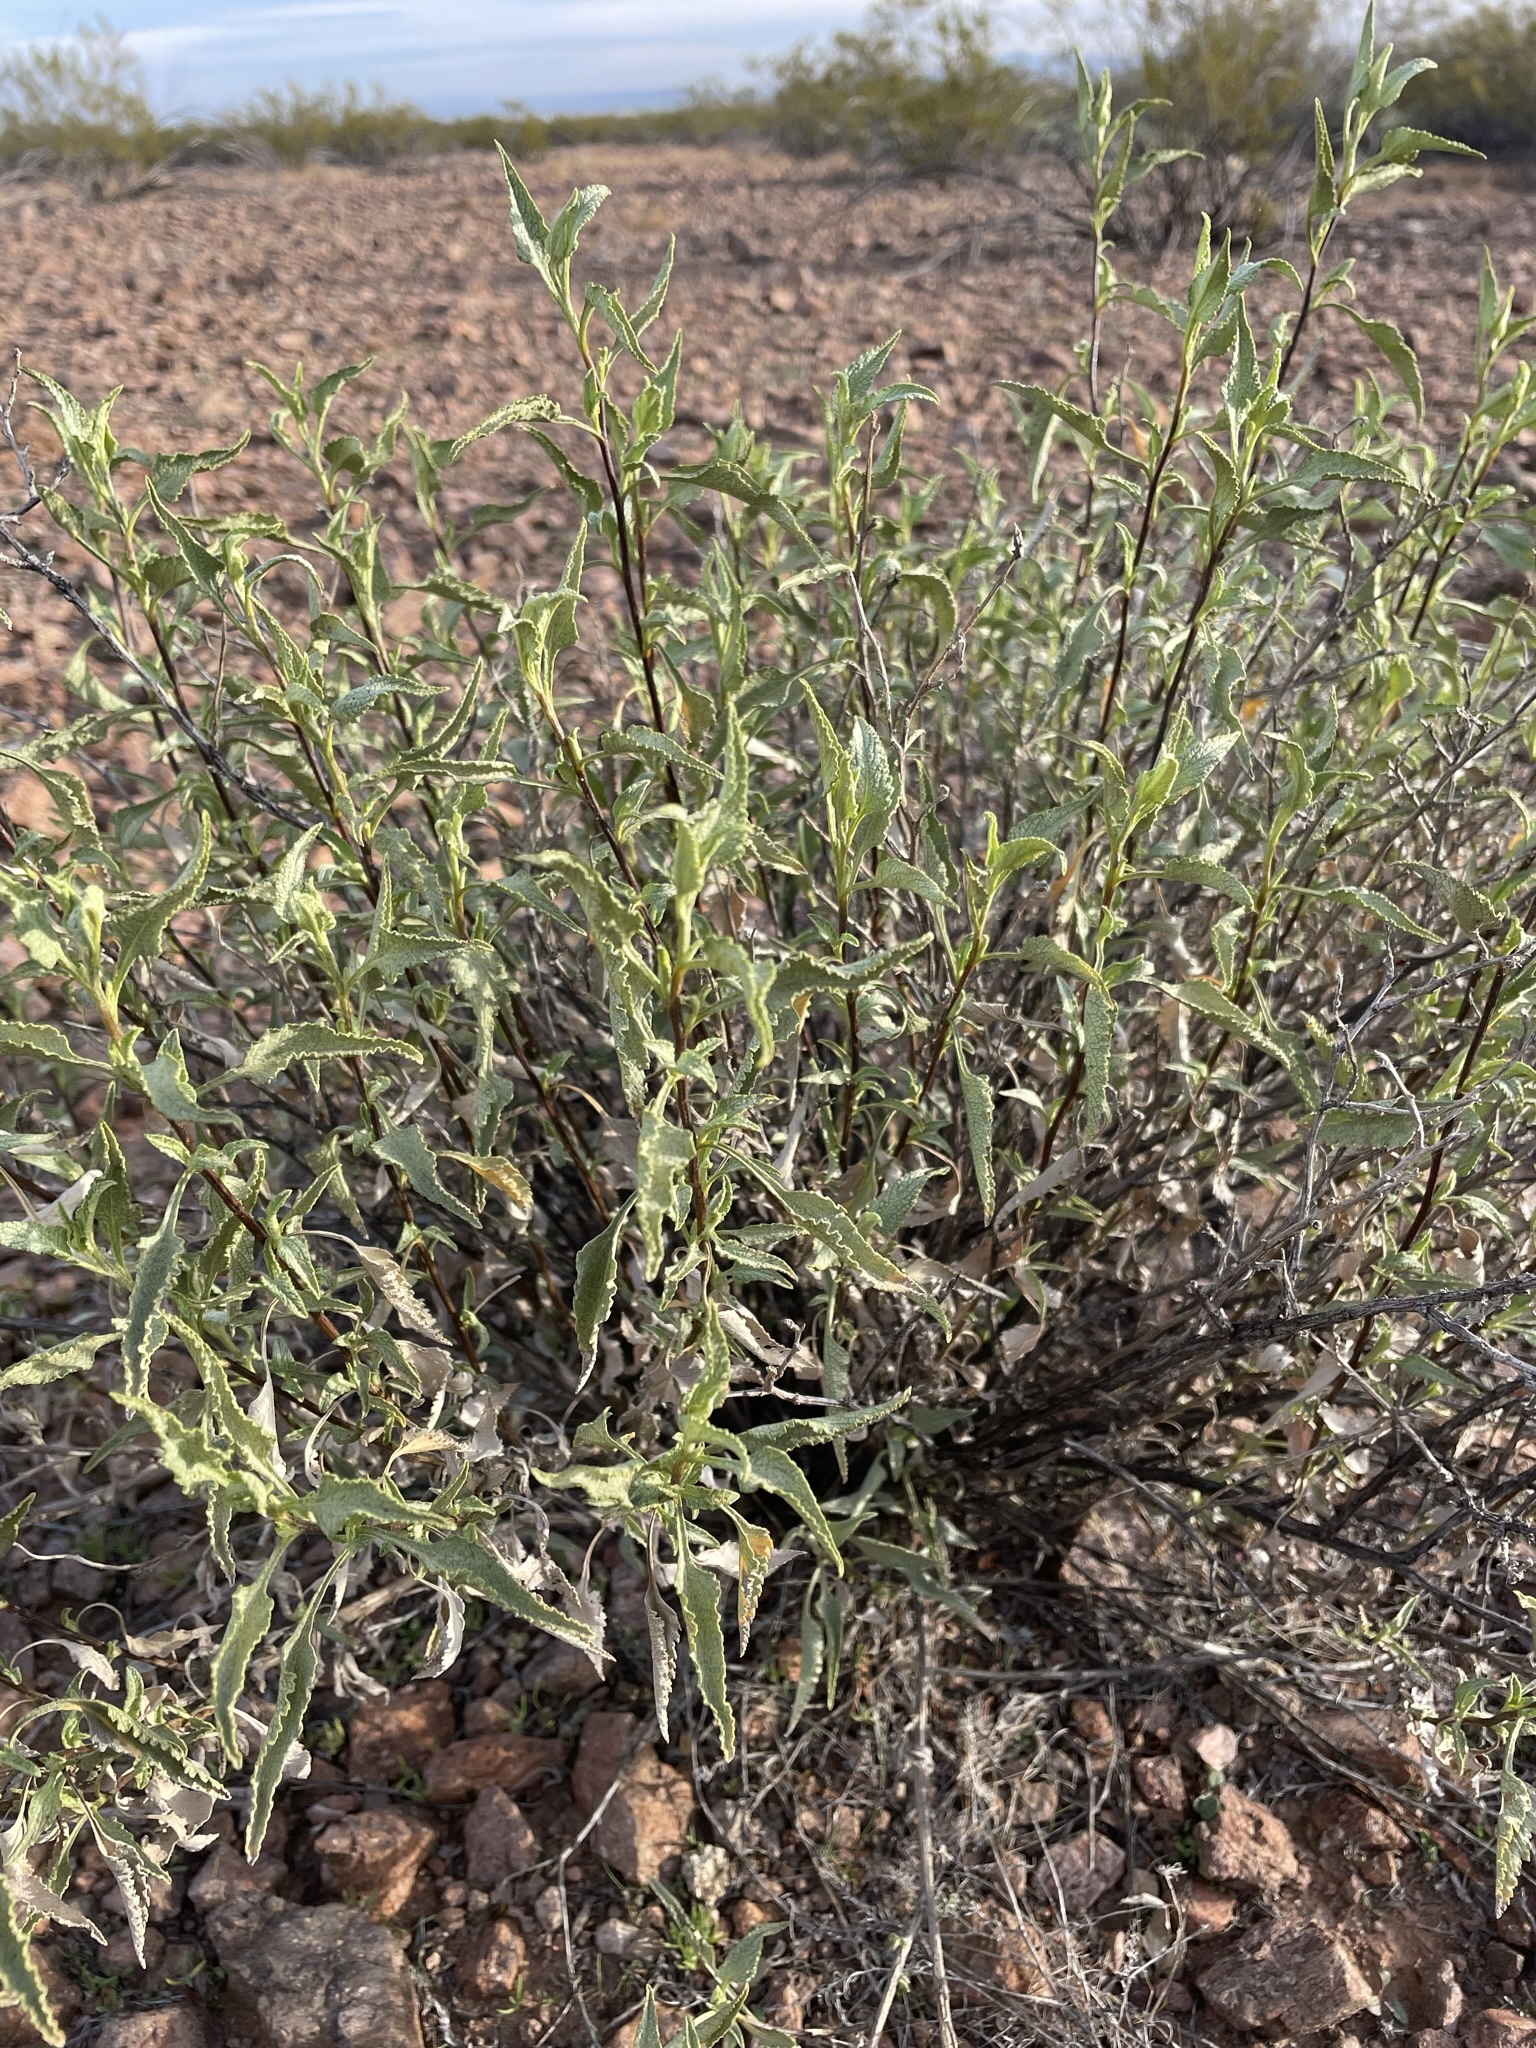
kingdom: Plantae
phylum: Tracheophyta
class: Magnoliopsida
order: Asterales
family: Asteraceae
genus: Ambrosia
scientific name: Ambrosia deltoidea
